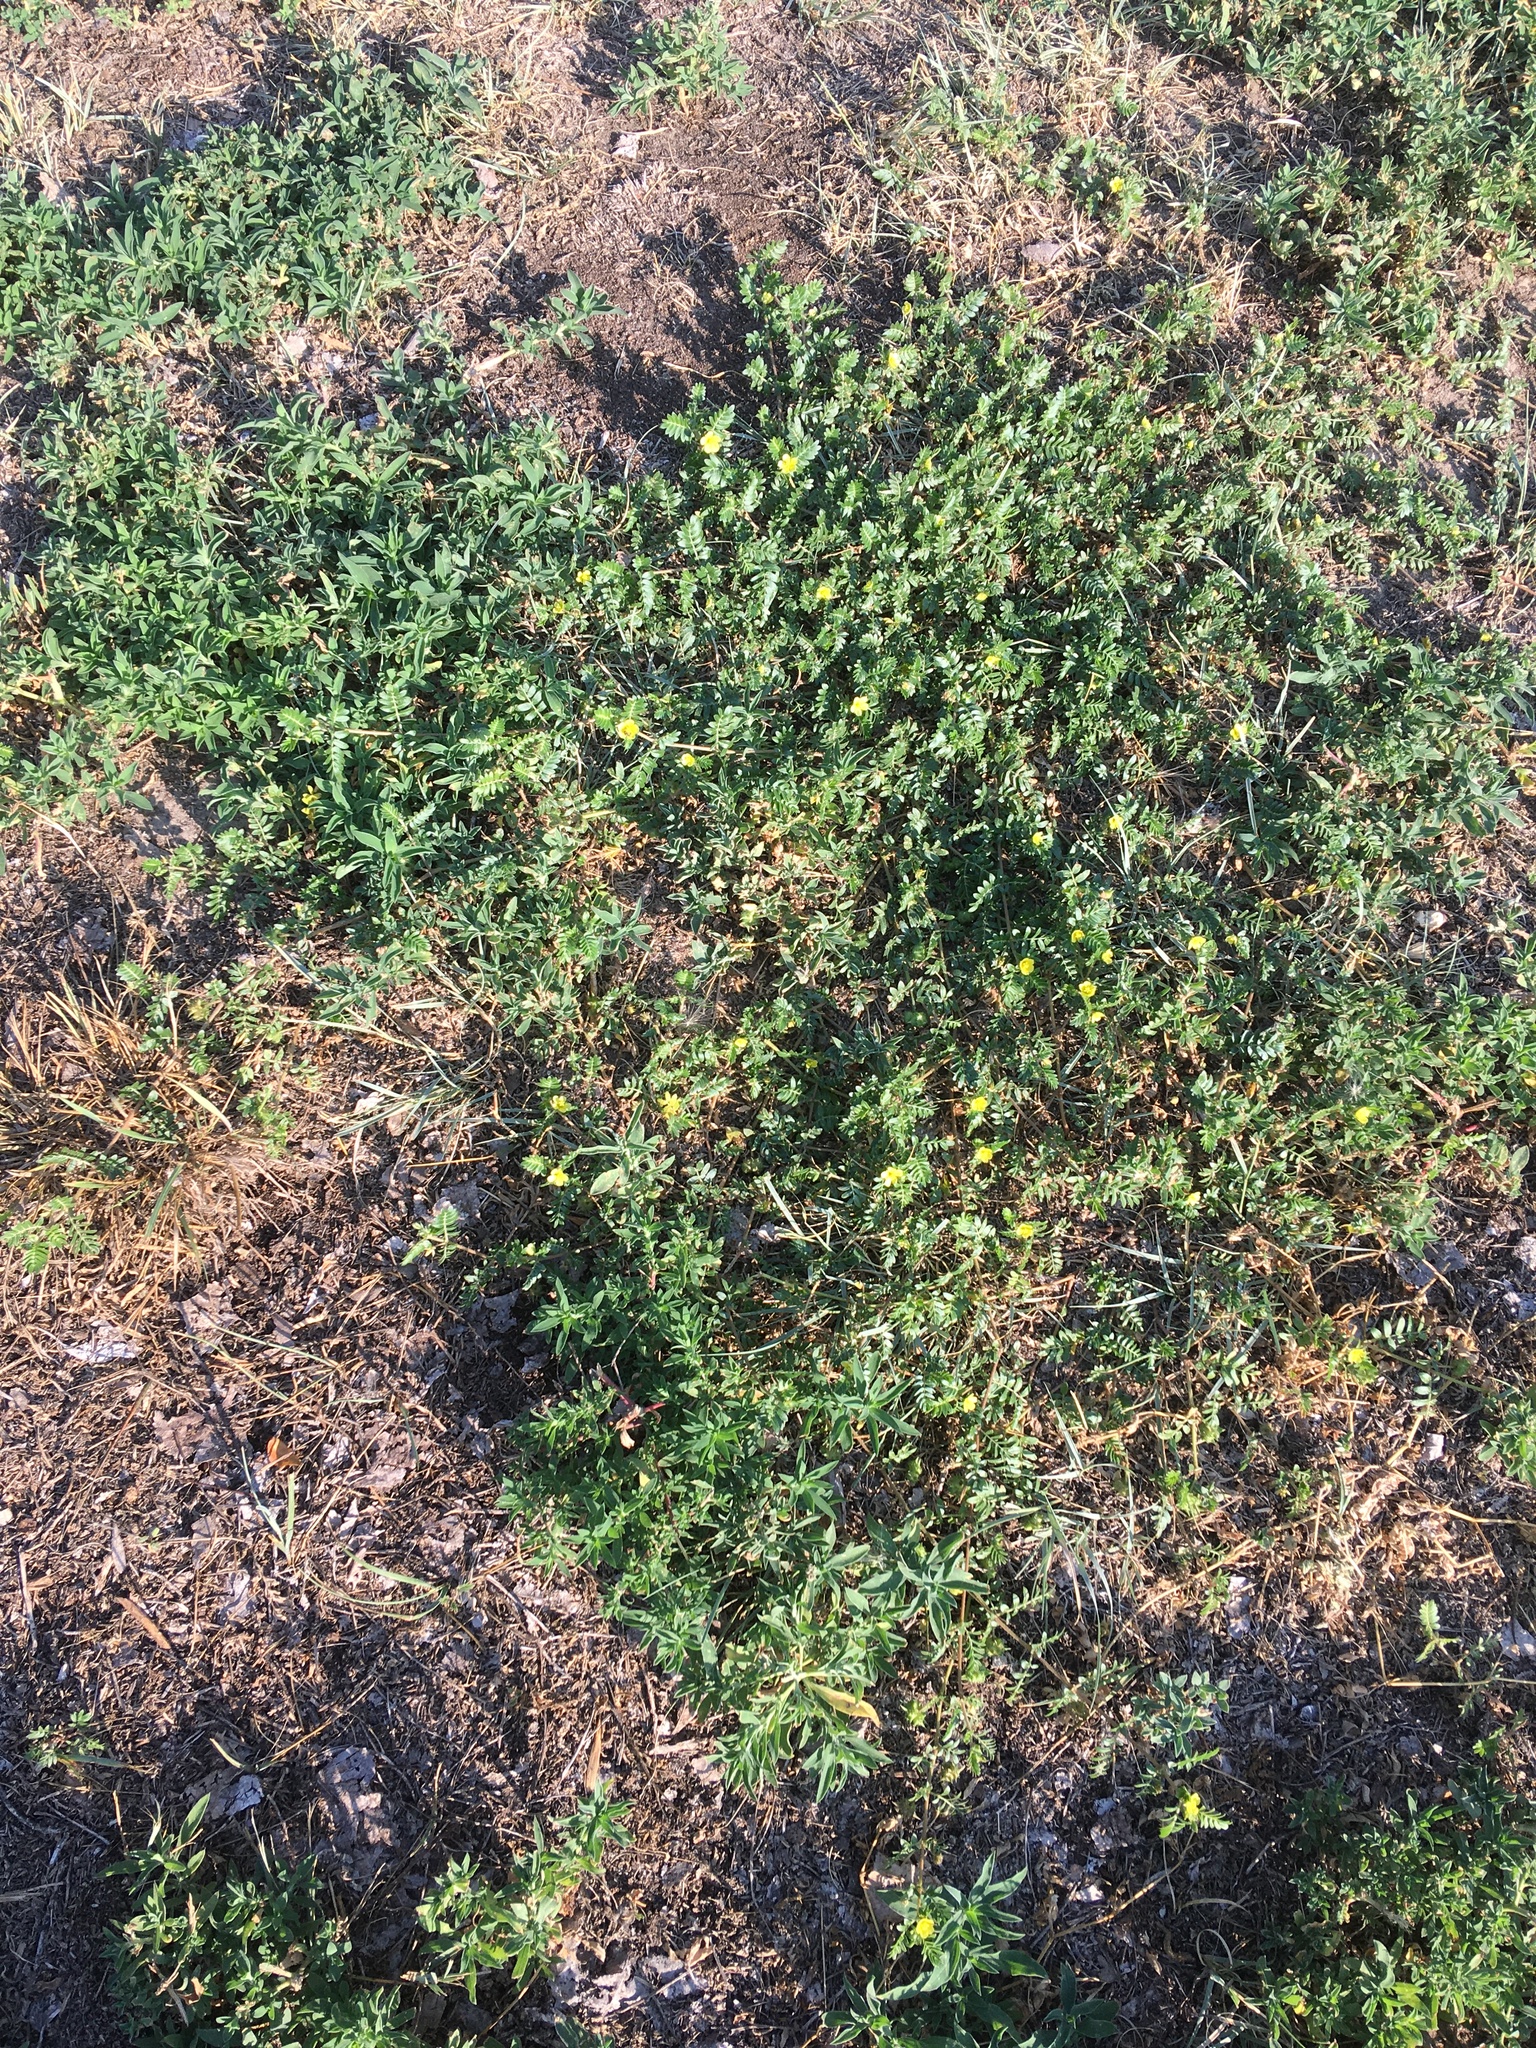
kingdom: Plantae
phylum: Tracheophyta
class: Magnoliopsida
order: Zygophyllales
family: Zygophyllaceae
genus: Tribulus
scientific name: Tribulus terrestris
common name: Puncturevine
